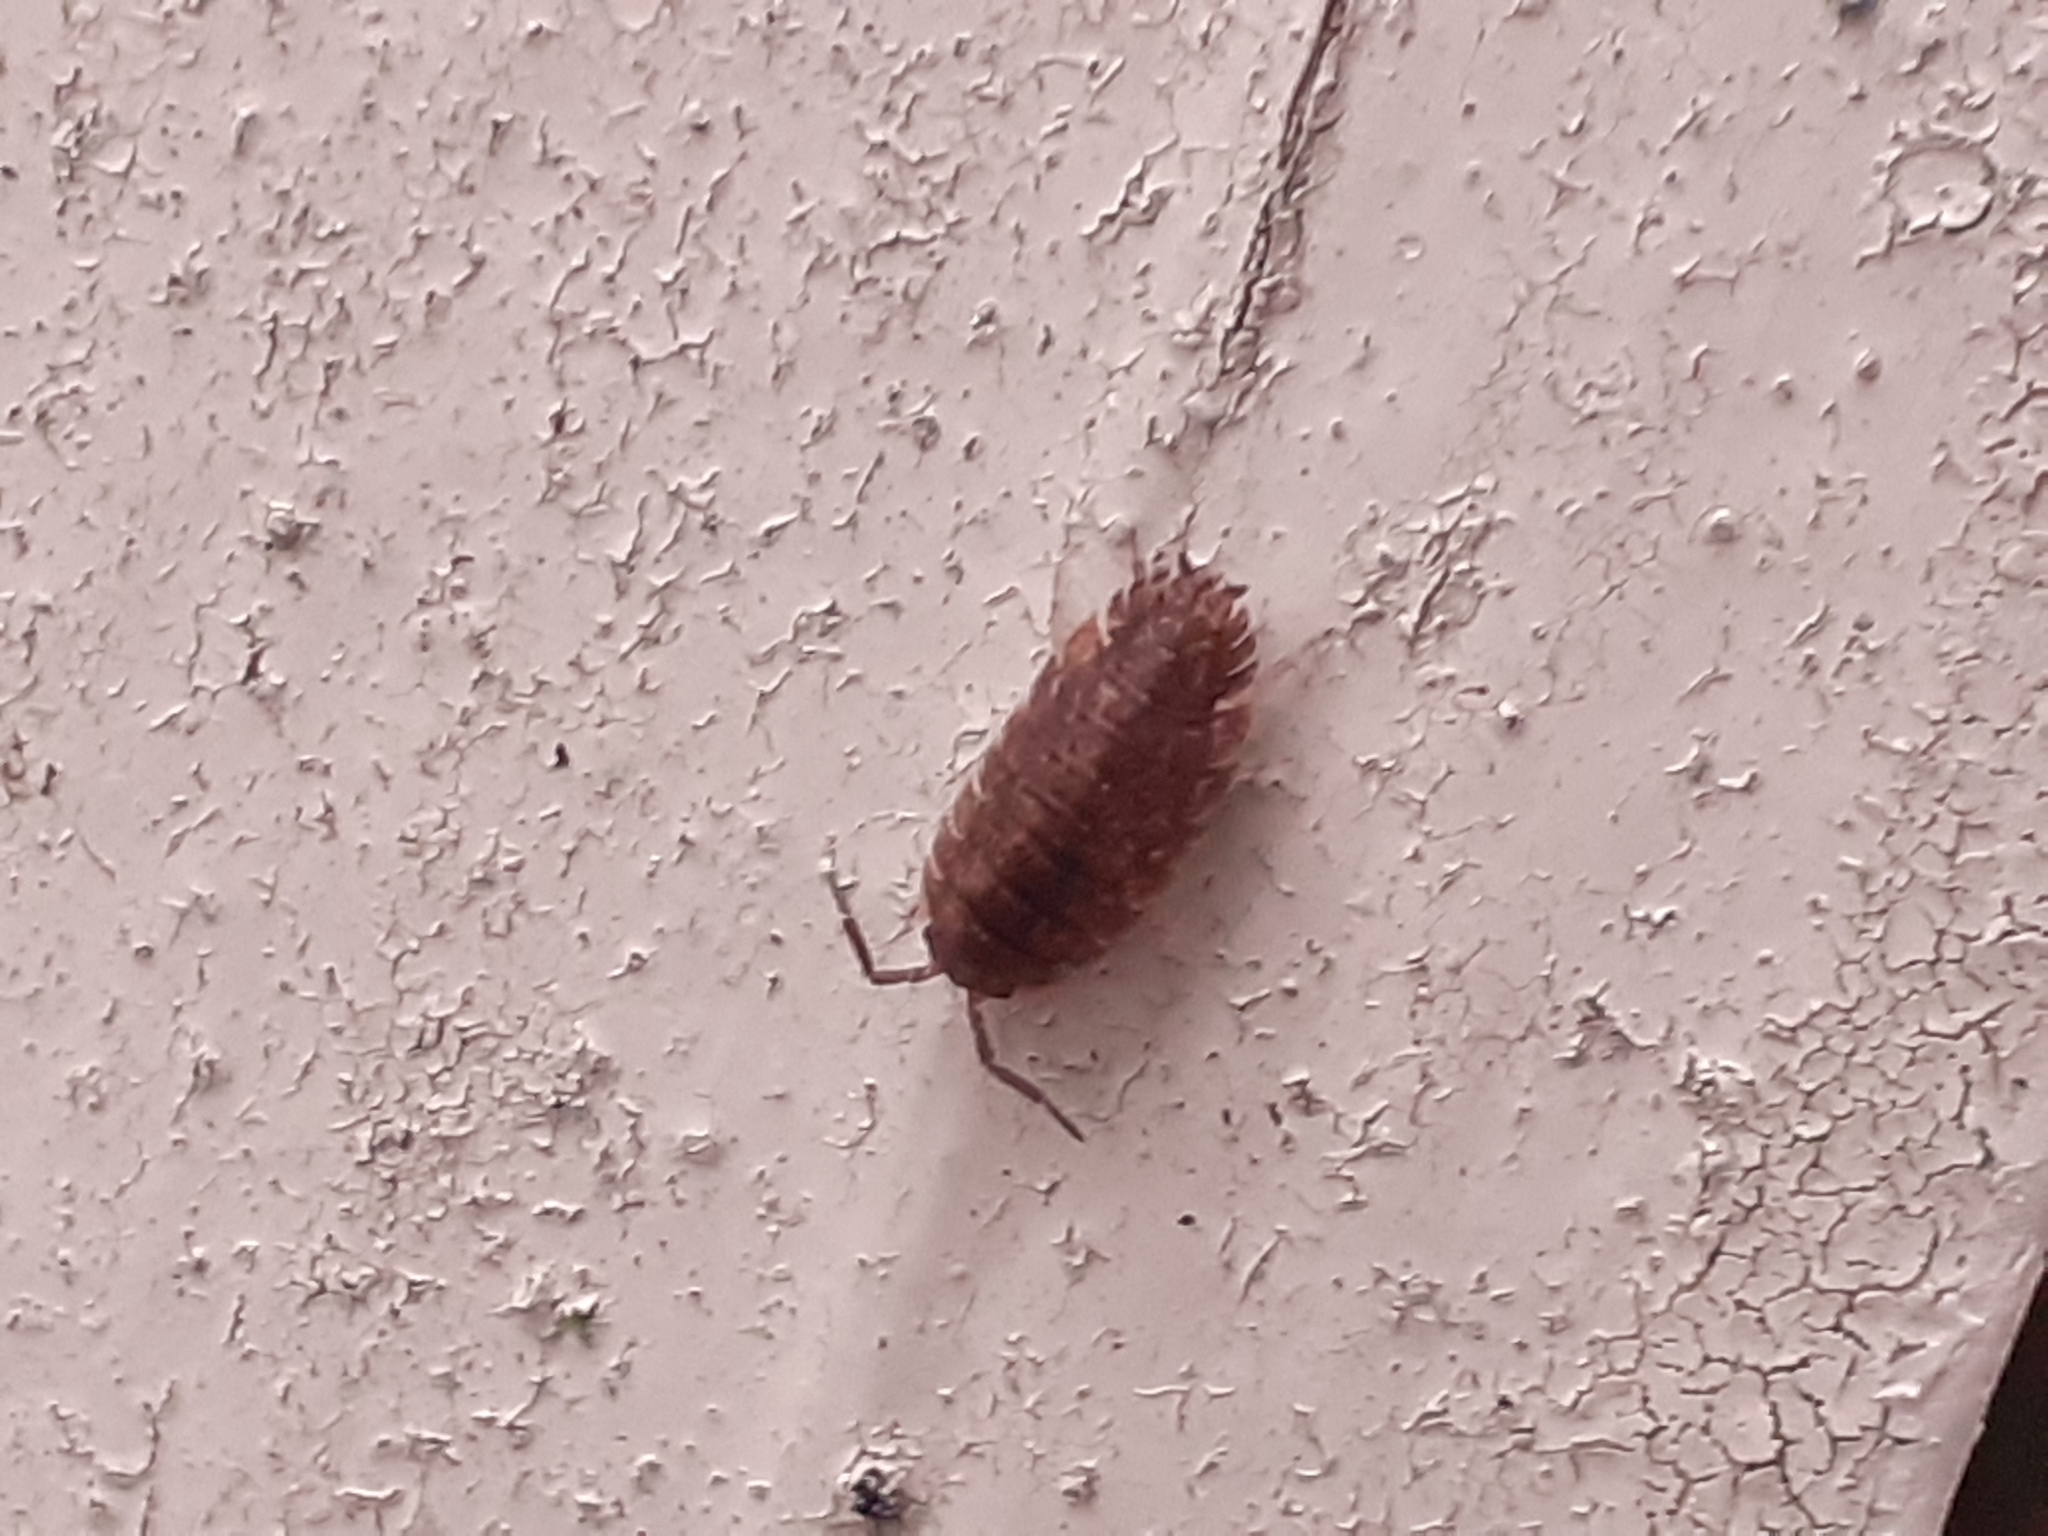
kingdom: Animalia
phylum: Arthropoda
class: Malacostraca
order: Isopoda
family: Oniscidae
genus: Oniscus
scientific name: Oniscus asellus
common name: Common shiny woodlouse
